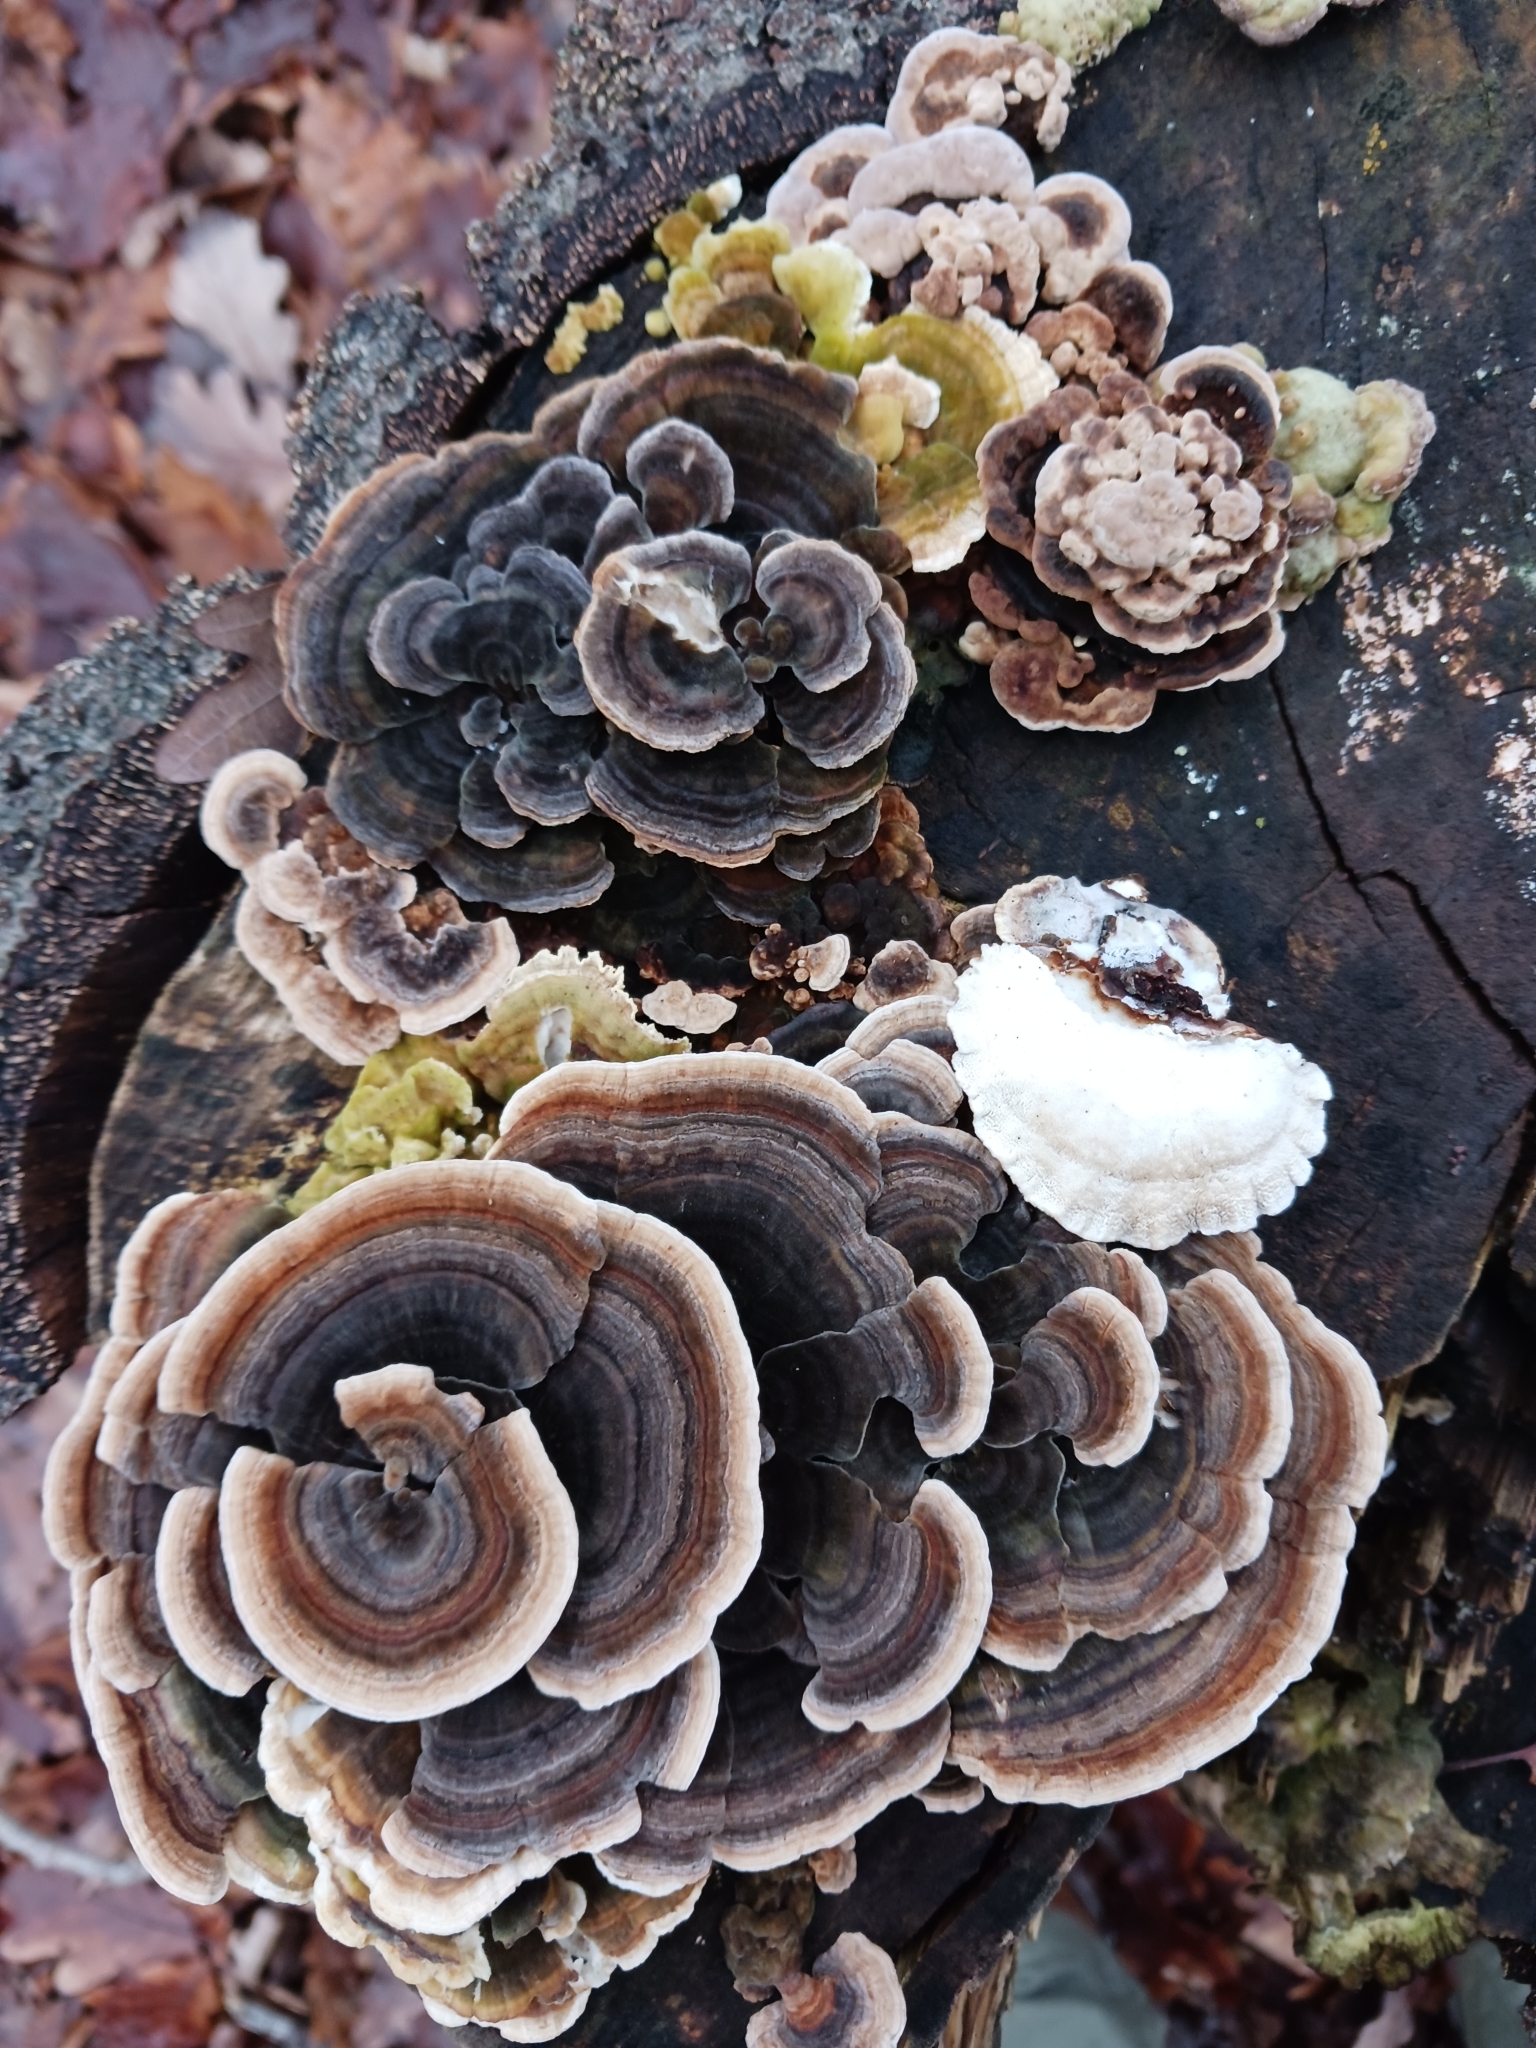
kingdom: Fungi
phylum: Basidiomycota
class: Agaricomycetes
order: Polyporales
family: Polyporaceae
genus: Trametes
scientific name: Trametes versicolor
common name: Turkeytail
